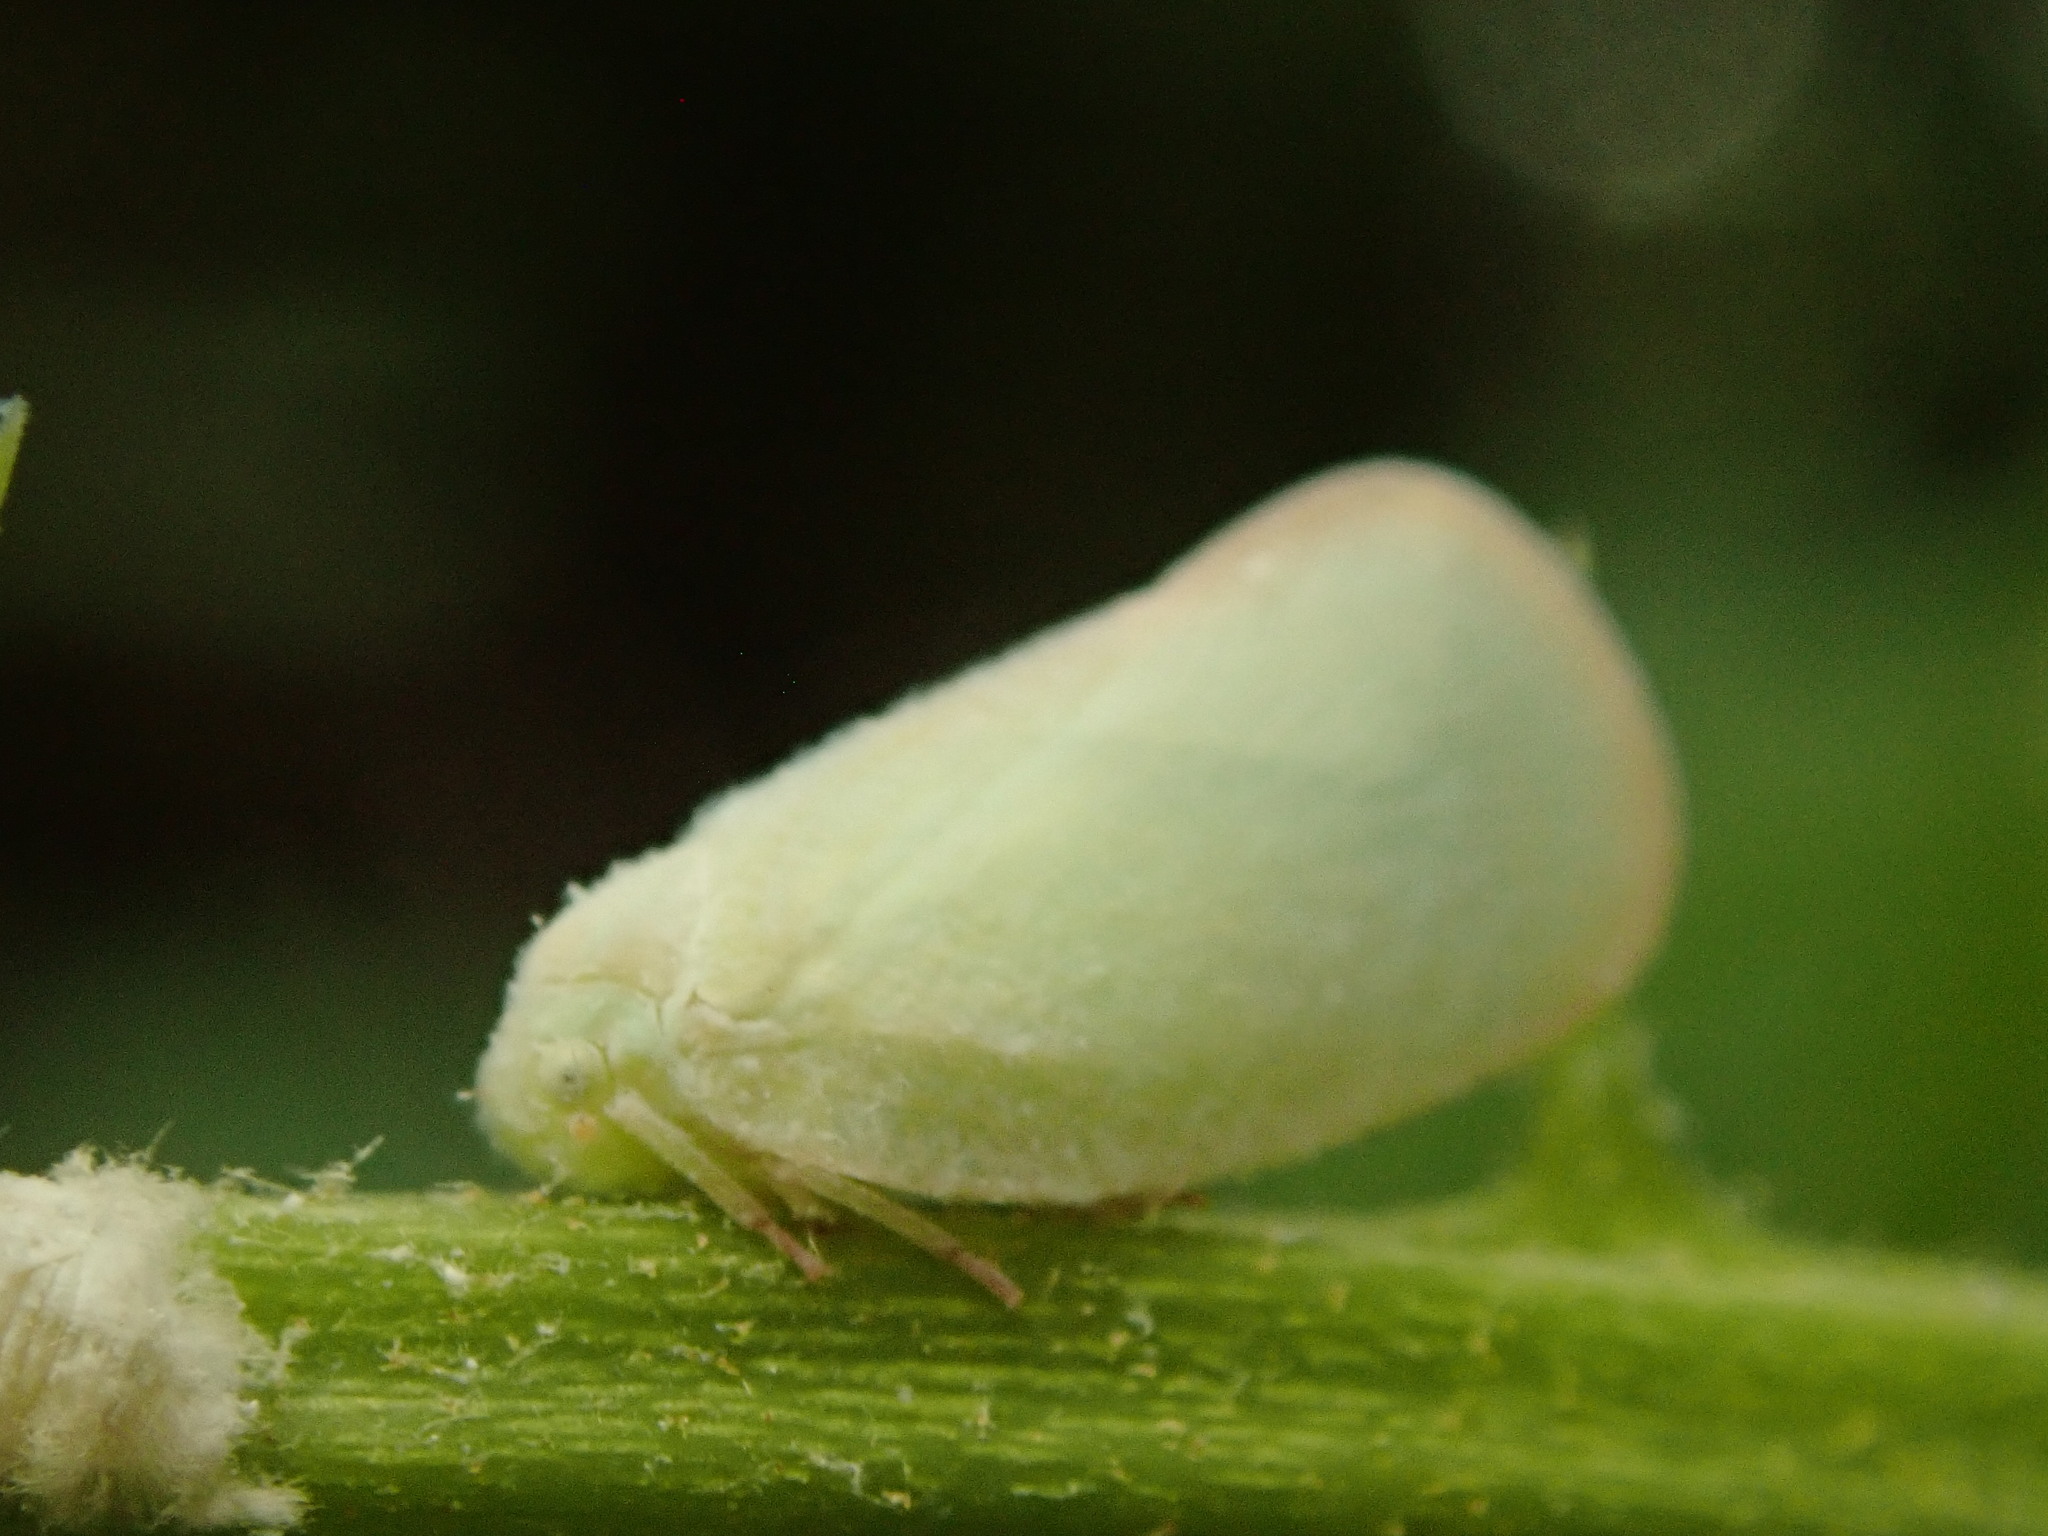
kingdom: Animalia
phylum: Arthropoda
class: Insecta
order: Hemiptera
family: Flatidae
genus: Ormenoides
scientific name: Ormenoides venusta
